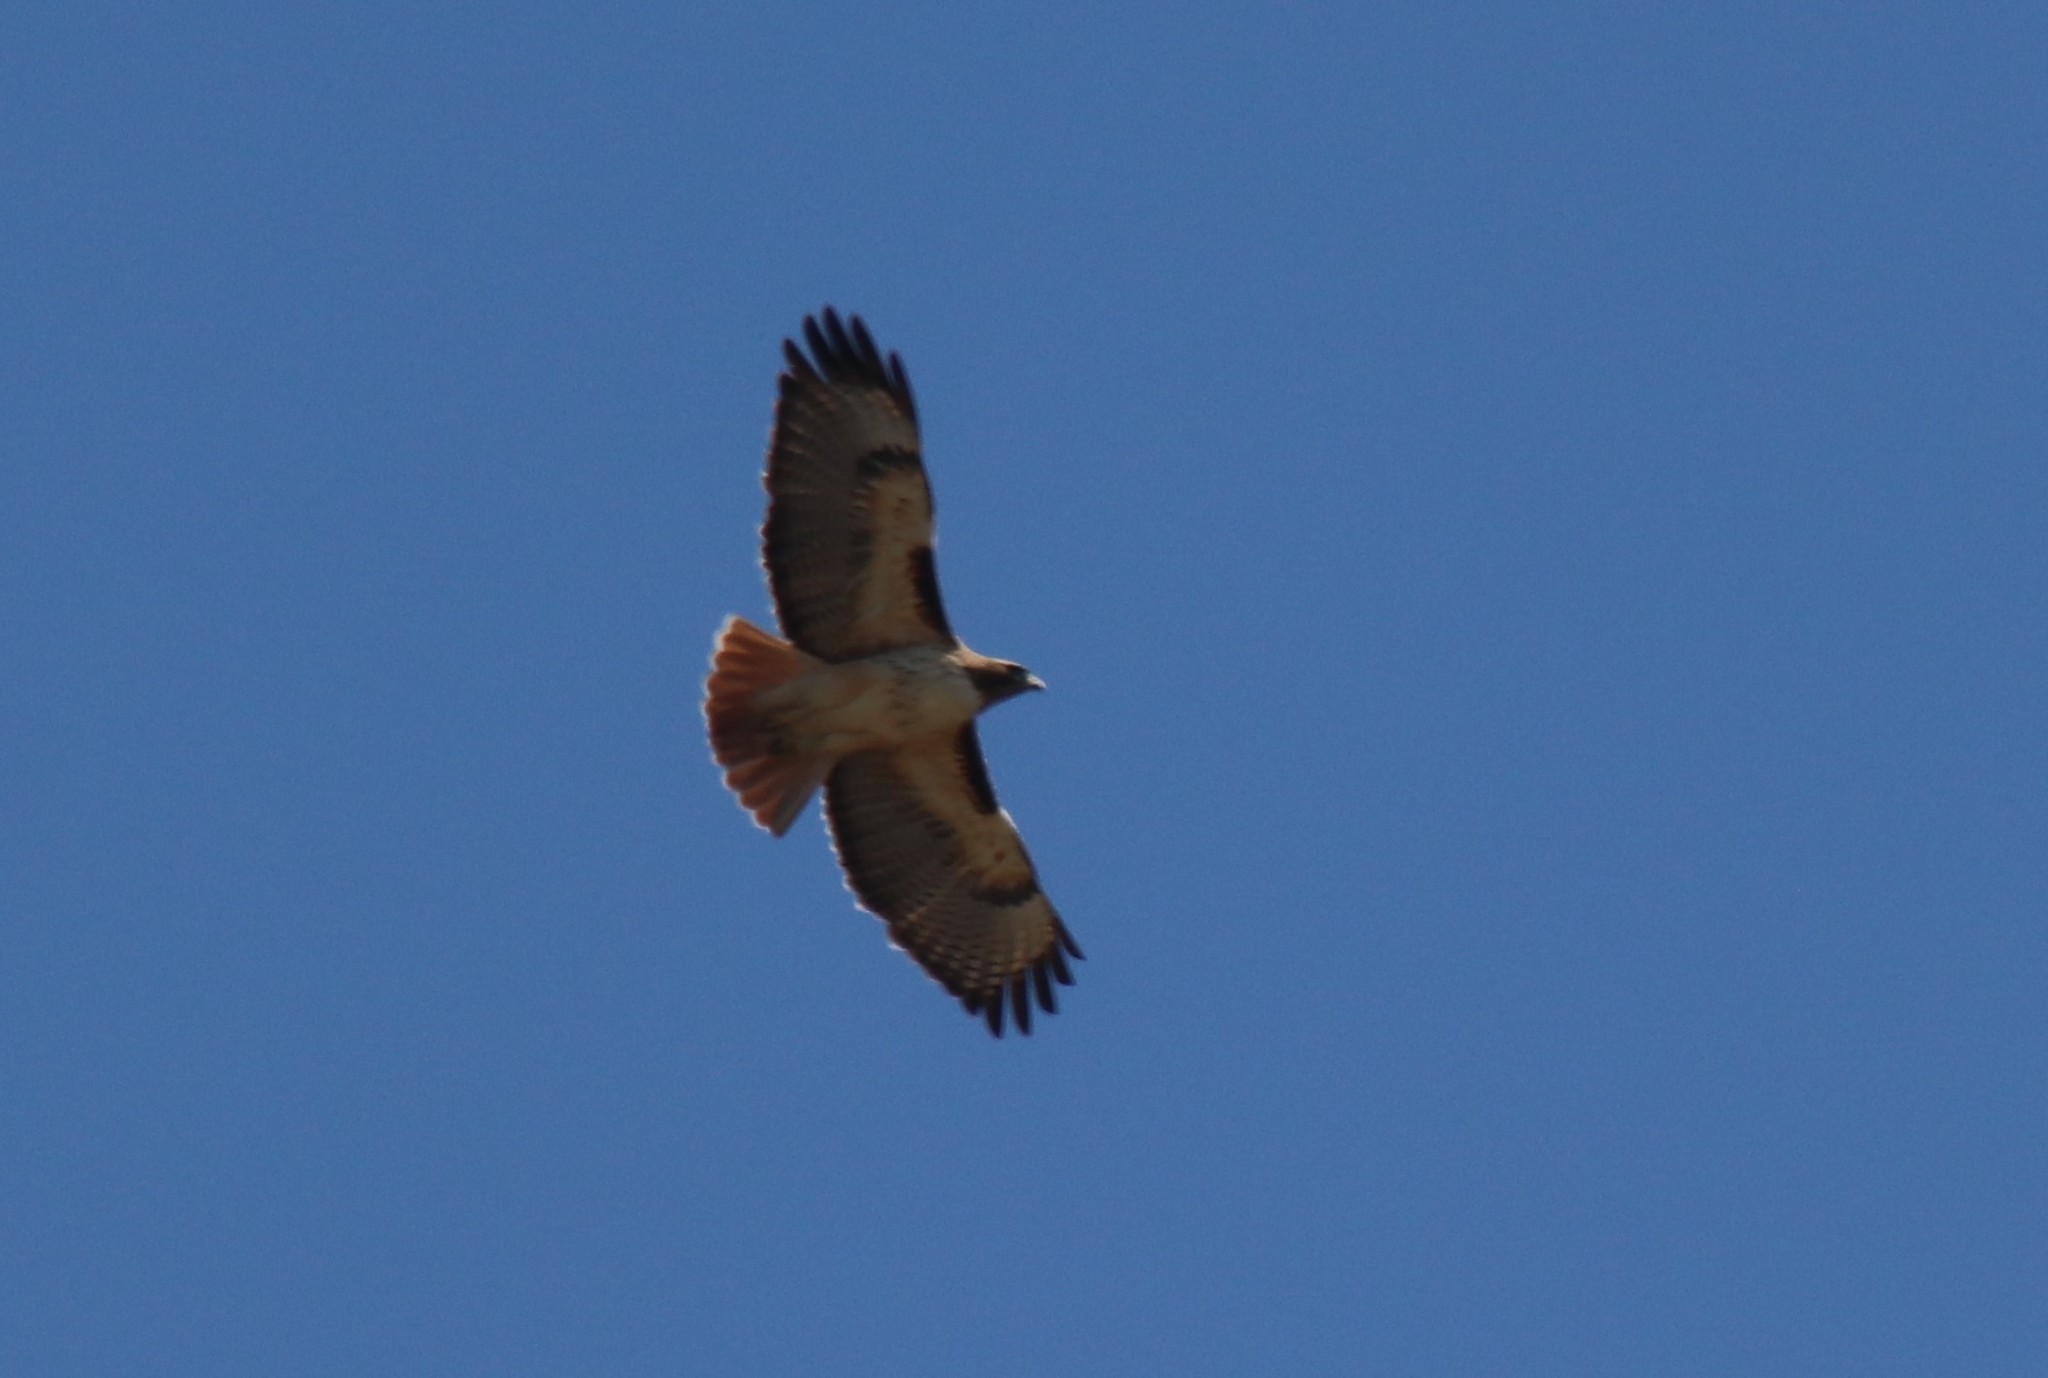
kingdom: Animalia
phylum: Chordata
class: Aves
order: Accipitriformes
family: Accipitridae
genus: Buteo
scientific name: Buteo jamaicensis
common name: Red-tailed hawk
